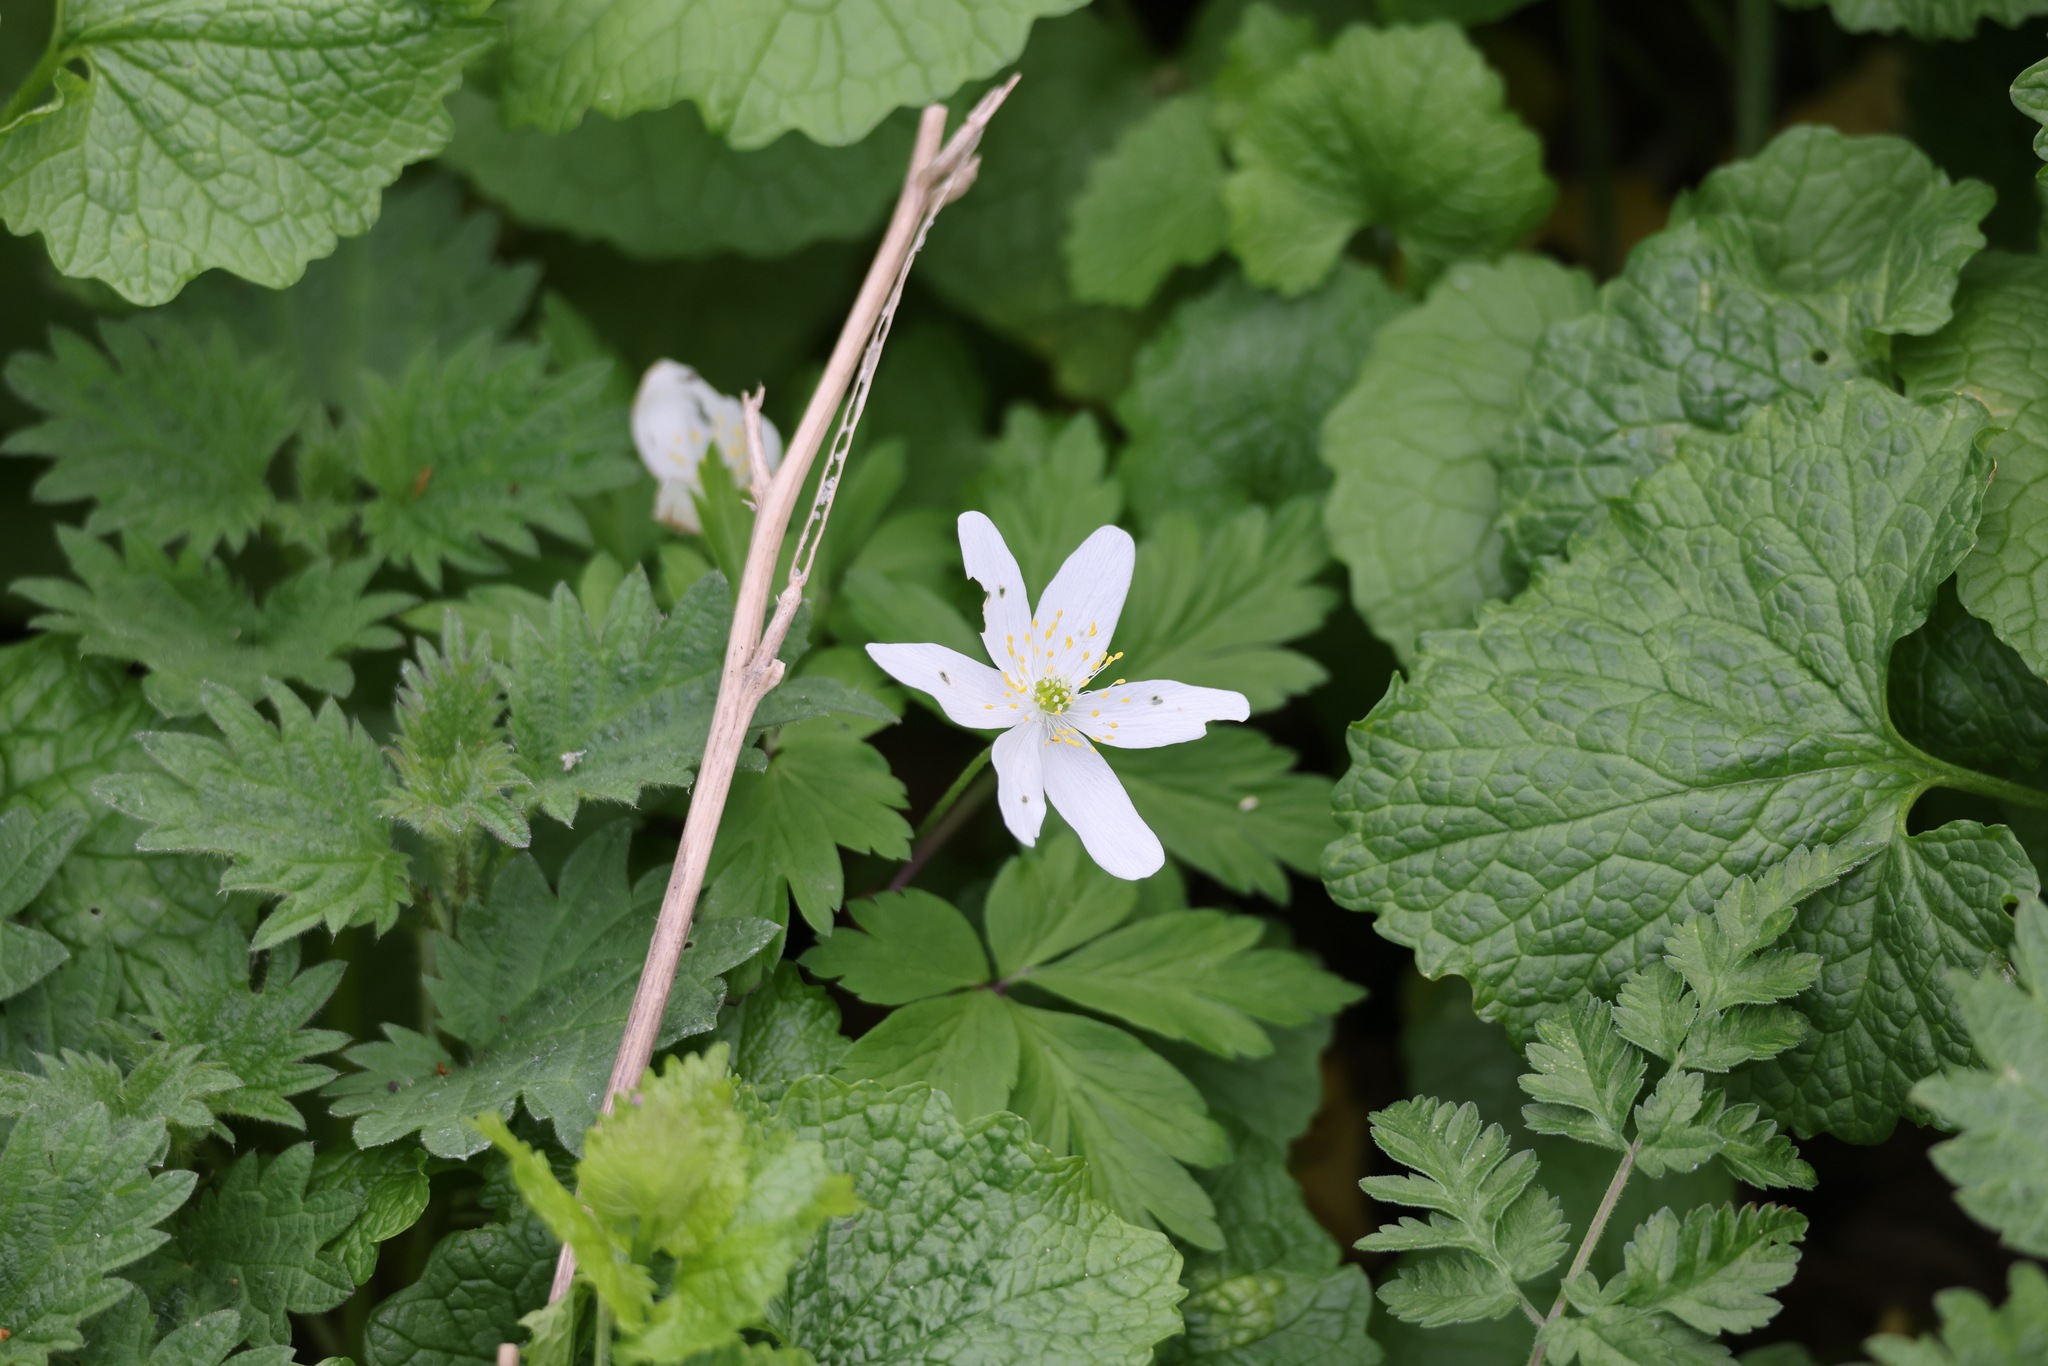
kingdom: Plantae
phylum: Tracheophyta
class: Magnoliopsida
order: Ranunculales
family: Ranunculaceae
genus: Anemone
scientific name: Anemone nemorosa
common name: Wood anemone
